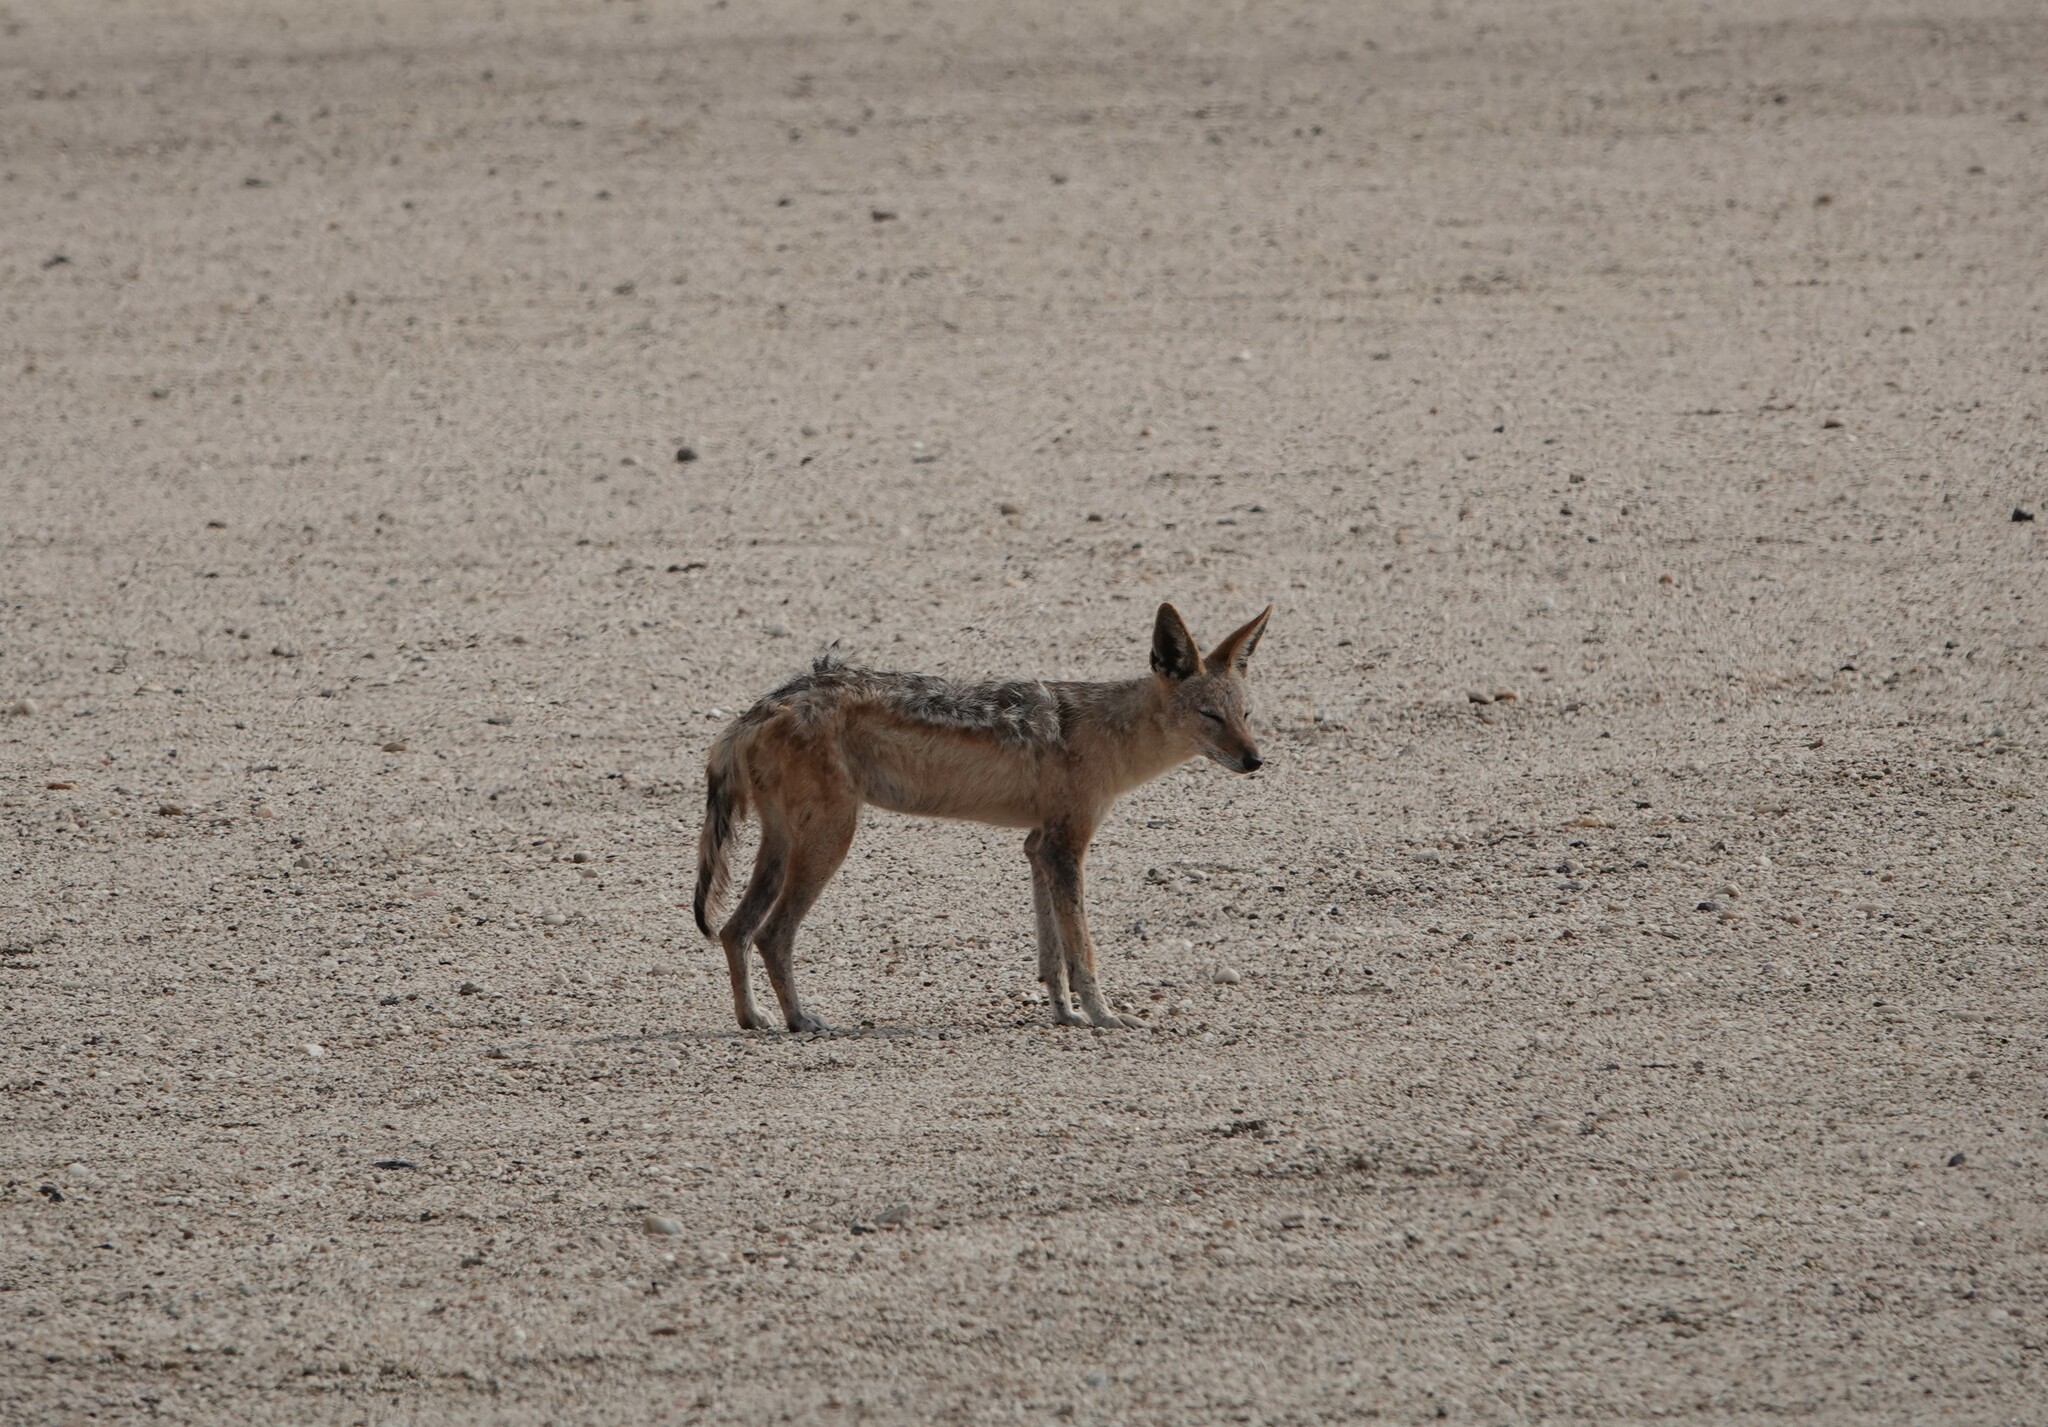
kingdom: Animalia
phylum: Chordata
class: Mammalia
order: Carnivora
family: Canidae
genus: Lupulella
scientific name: Lupulella
